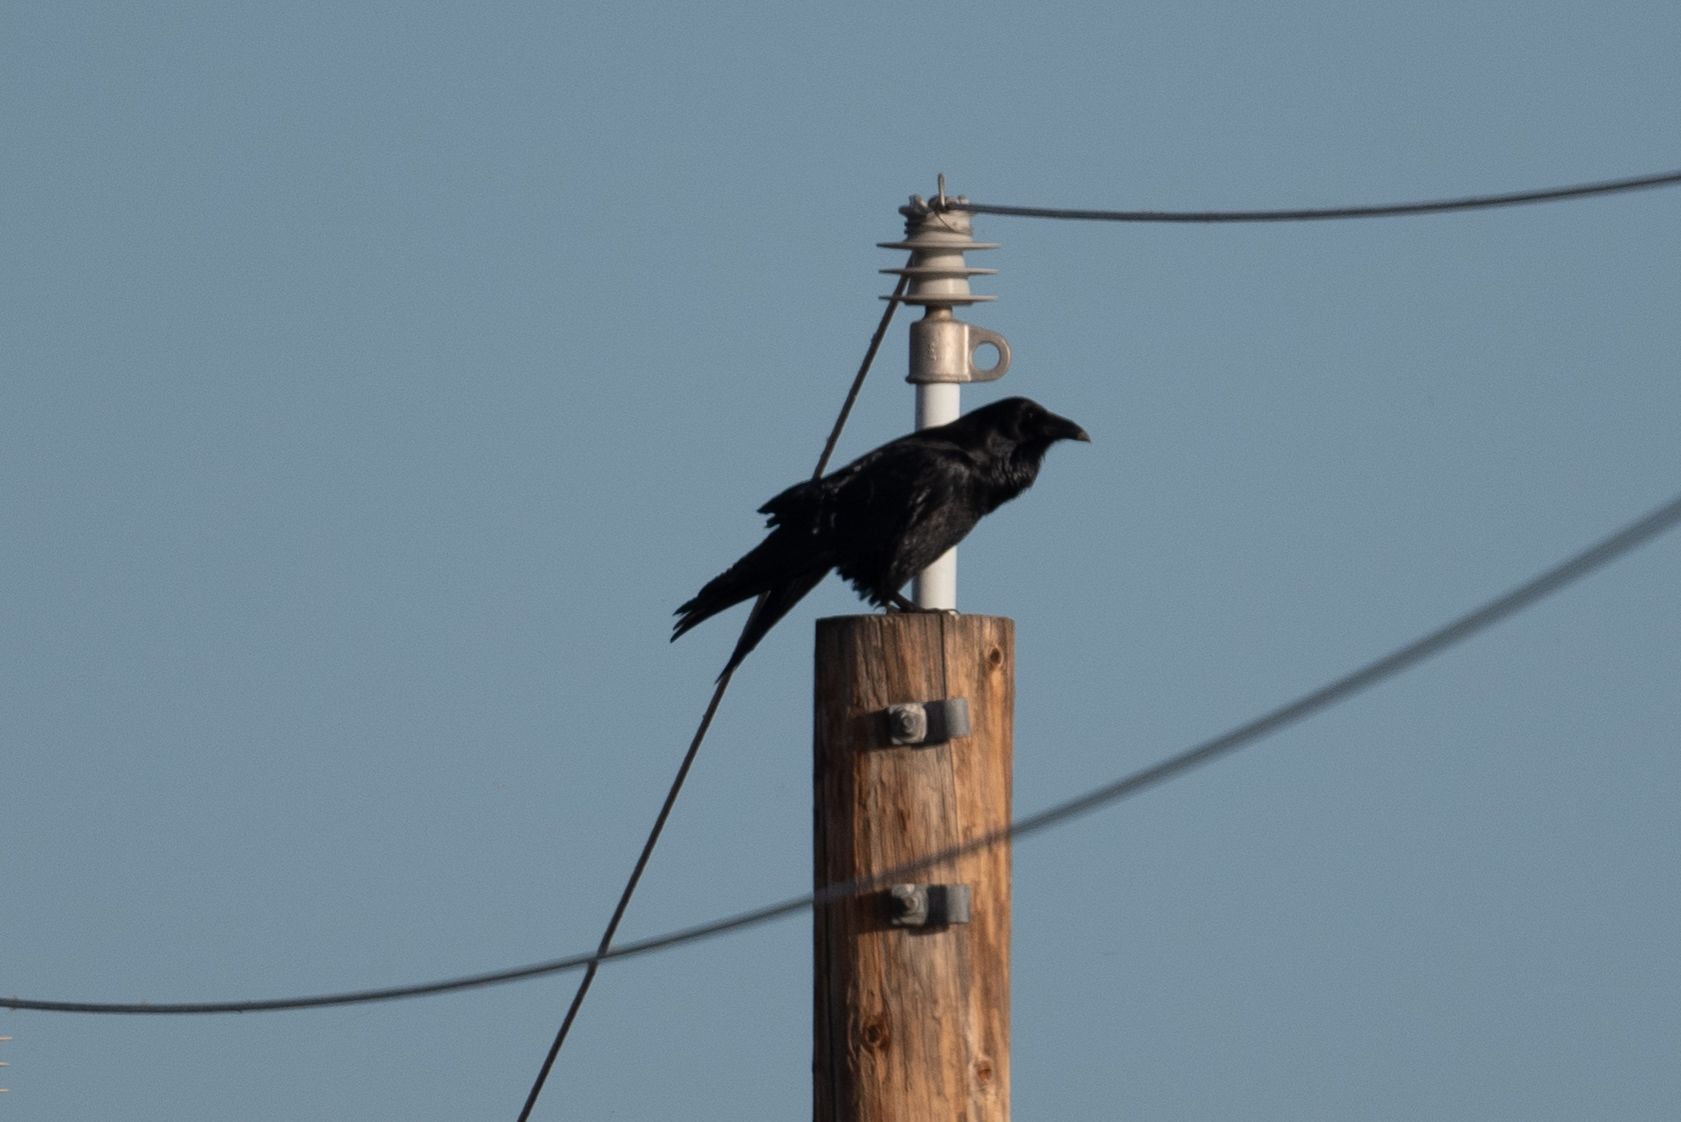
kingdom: Animalia
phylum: Chordata
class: Aves
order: Passeriformes
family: Corvidae
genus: Corvus
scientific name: Corvus corax
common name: Common raven
